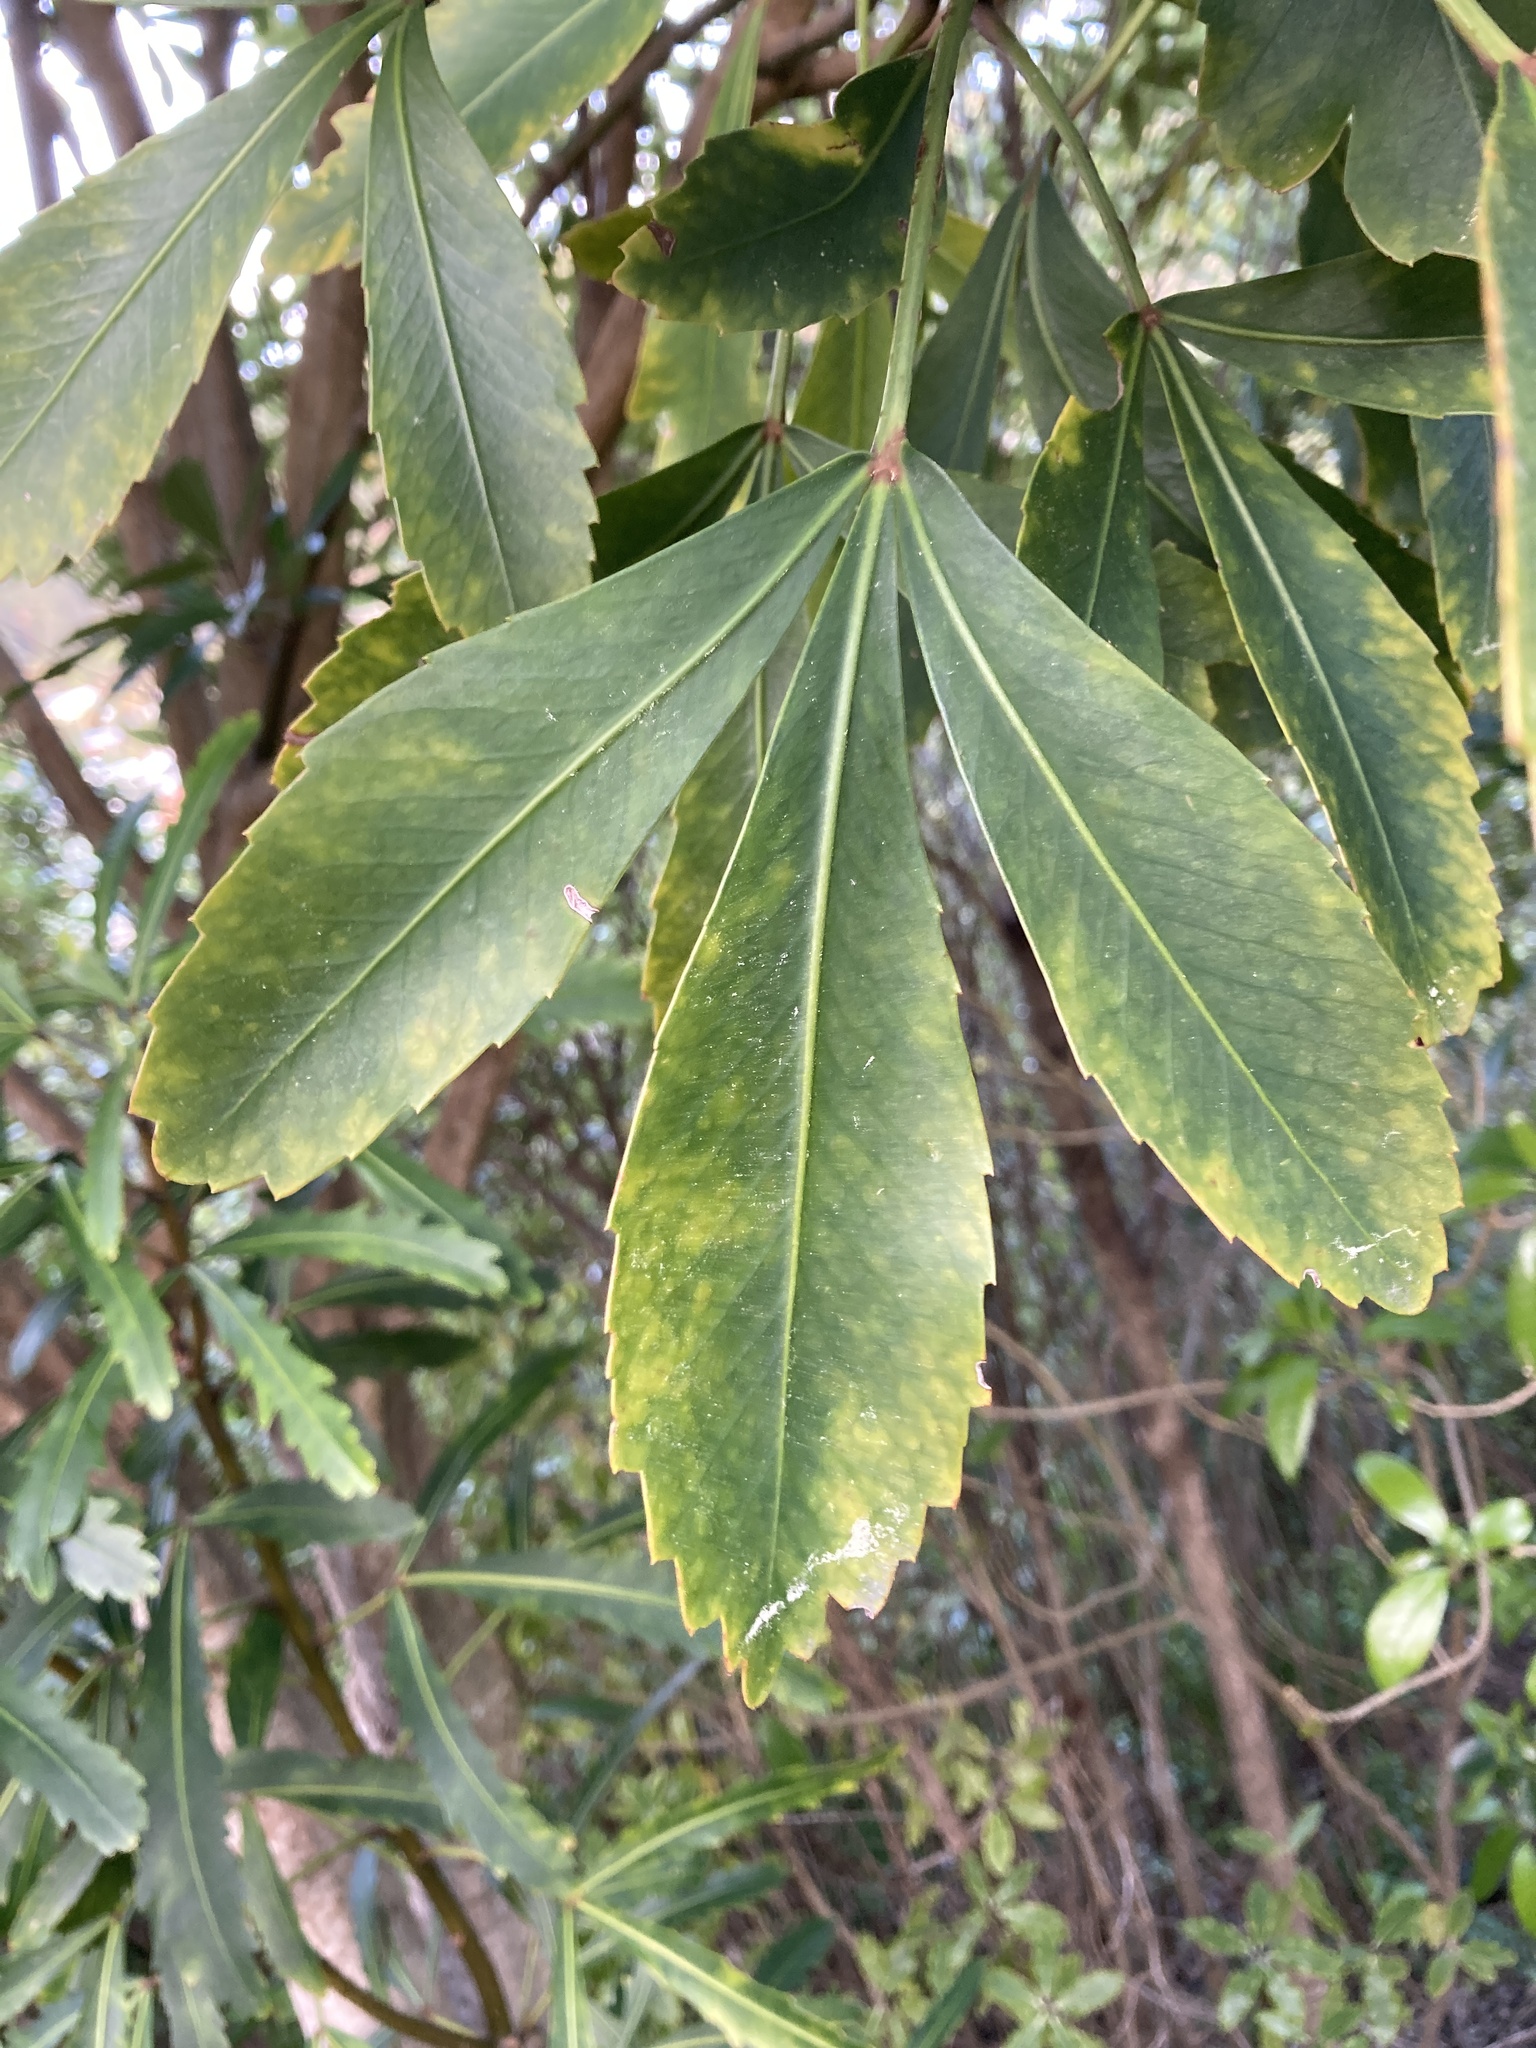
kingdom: Plantae
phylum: Tracheophyta
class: Magnoliopsida
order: Apiales
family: Araliaceae
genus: Pseudopanax
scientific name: Pseudopanax lessonii
